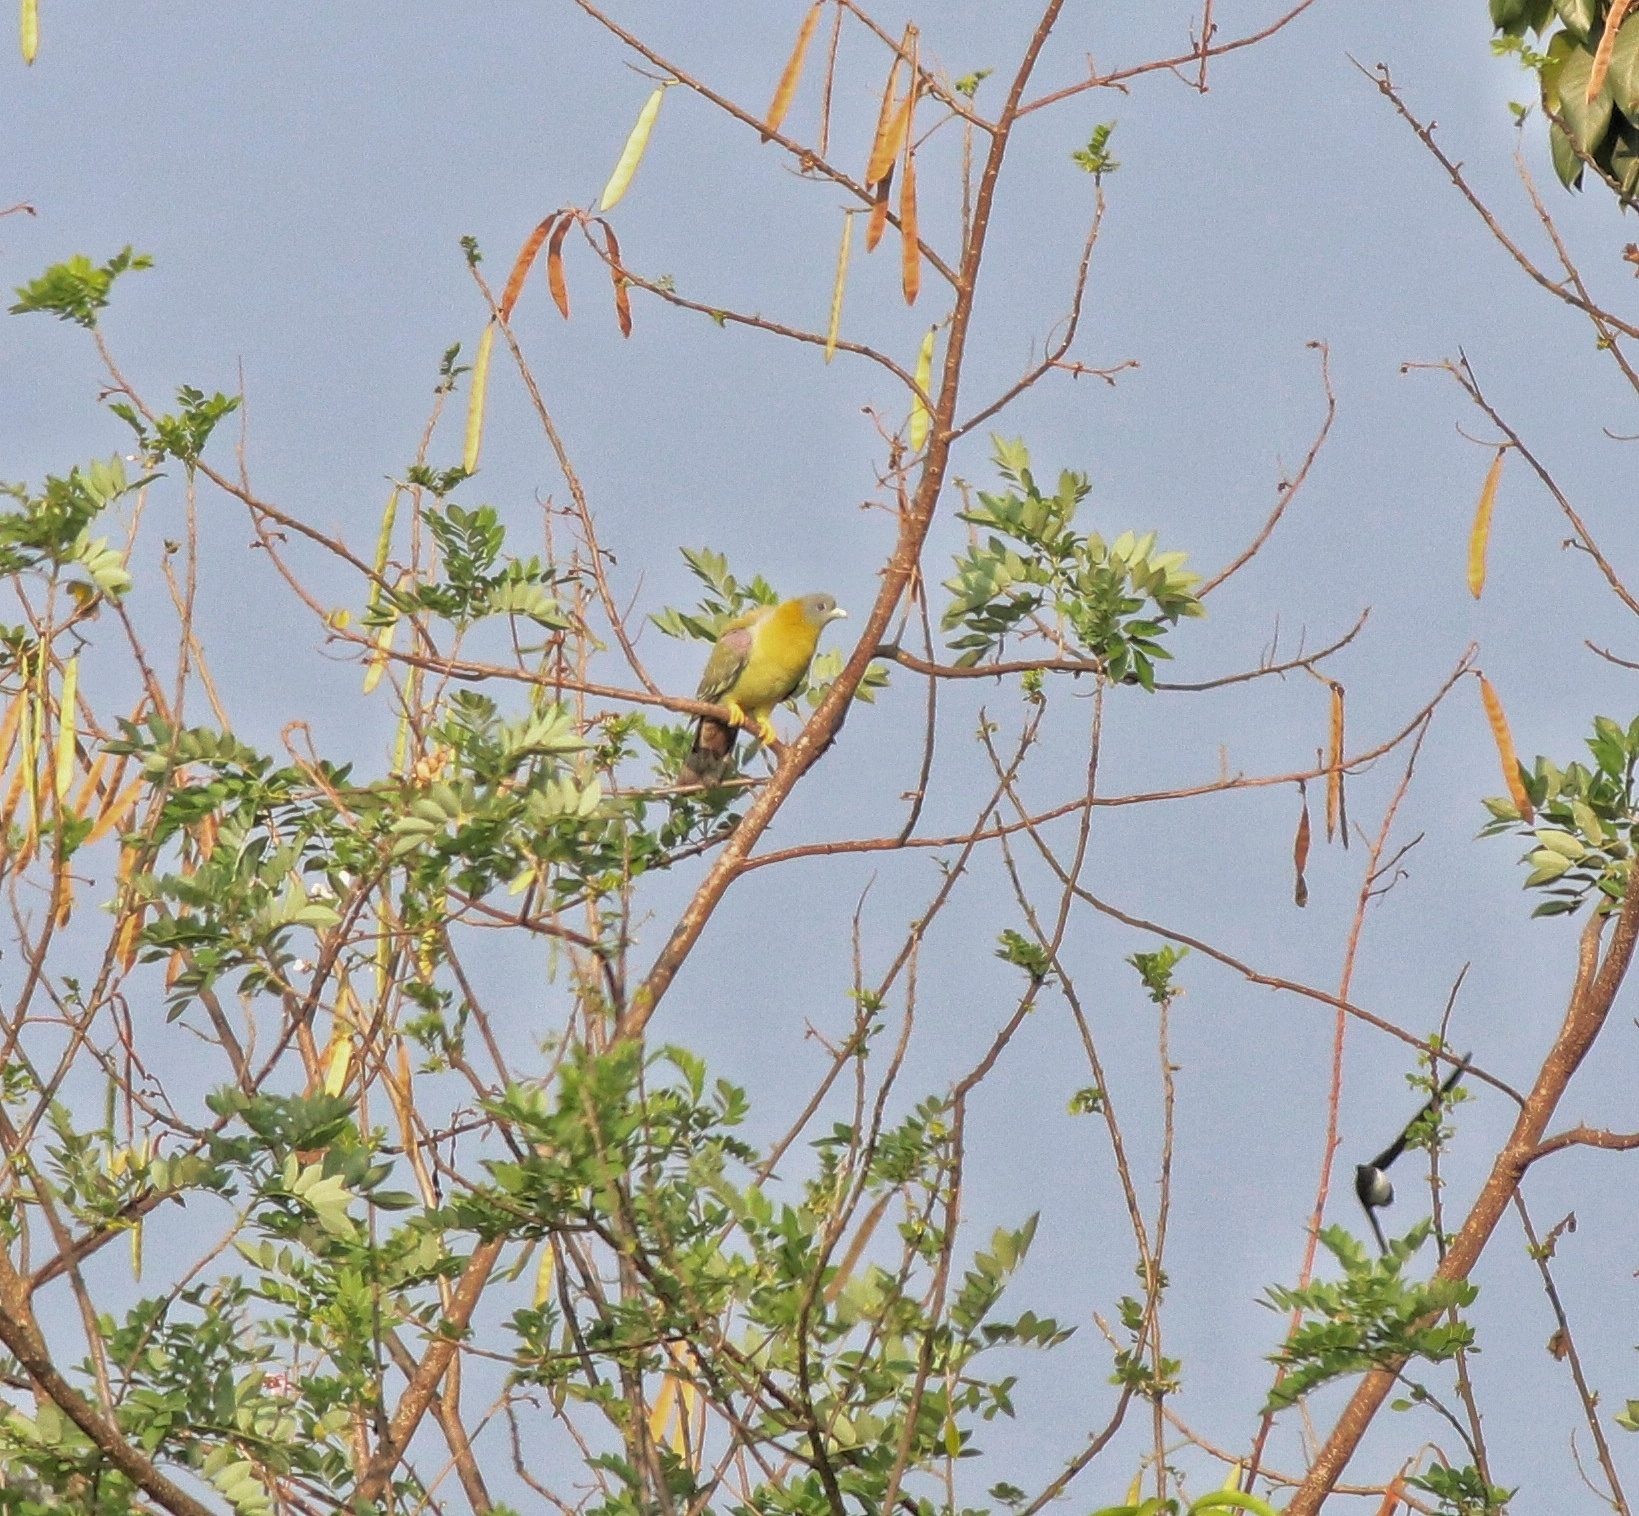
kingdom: Animalia
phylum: Chordata
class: Aves
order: Columbiformes
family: Columbidae
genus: Treron
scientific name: Treron phoenicopterus
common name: Yellow-footed green pigeon
